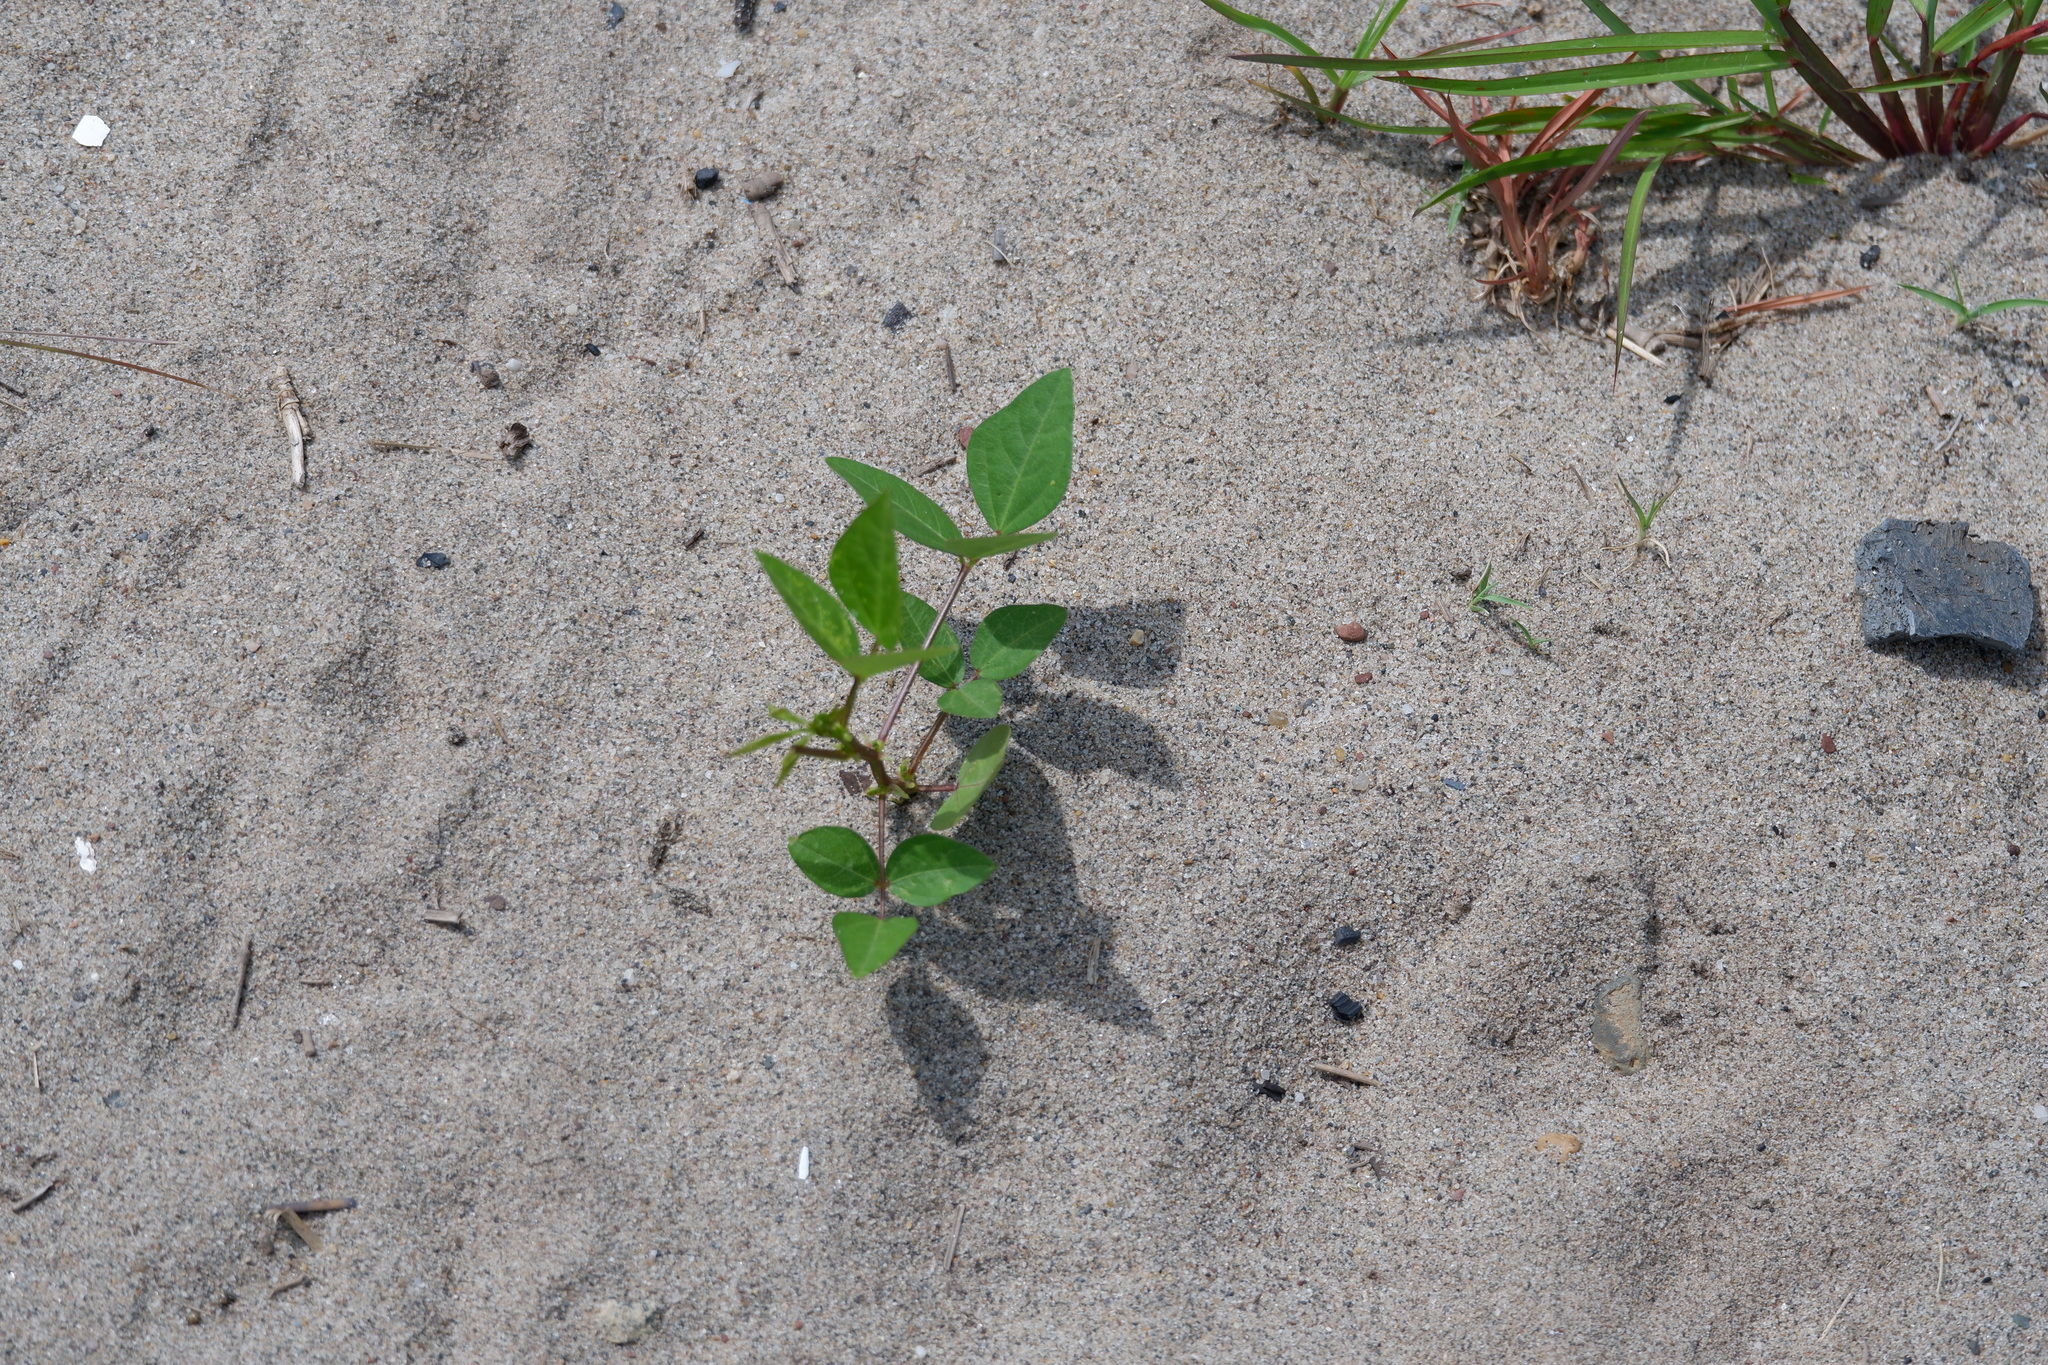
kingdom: Plantae
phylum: Tracheophyta
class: Magnoliopsida
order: Fabales
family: Fabaceae
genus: Strophostyles
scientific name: Strophostyles helvola
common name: Trailing wild bean
